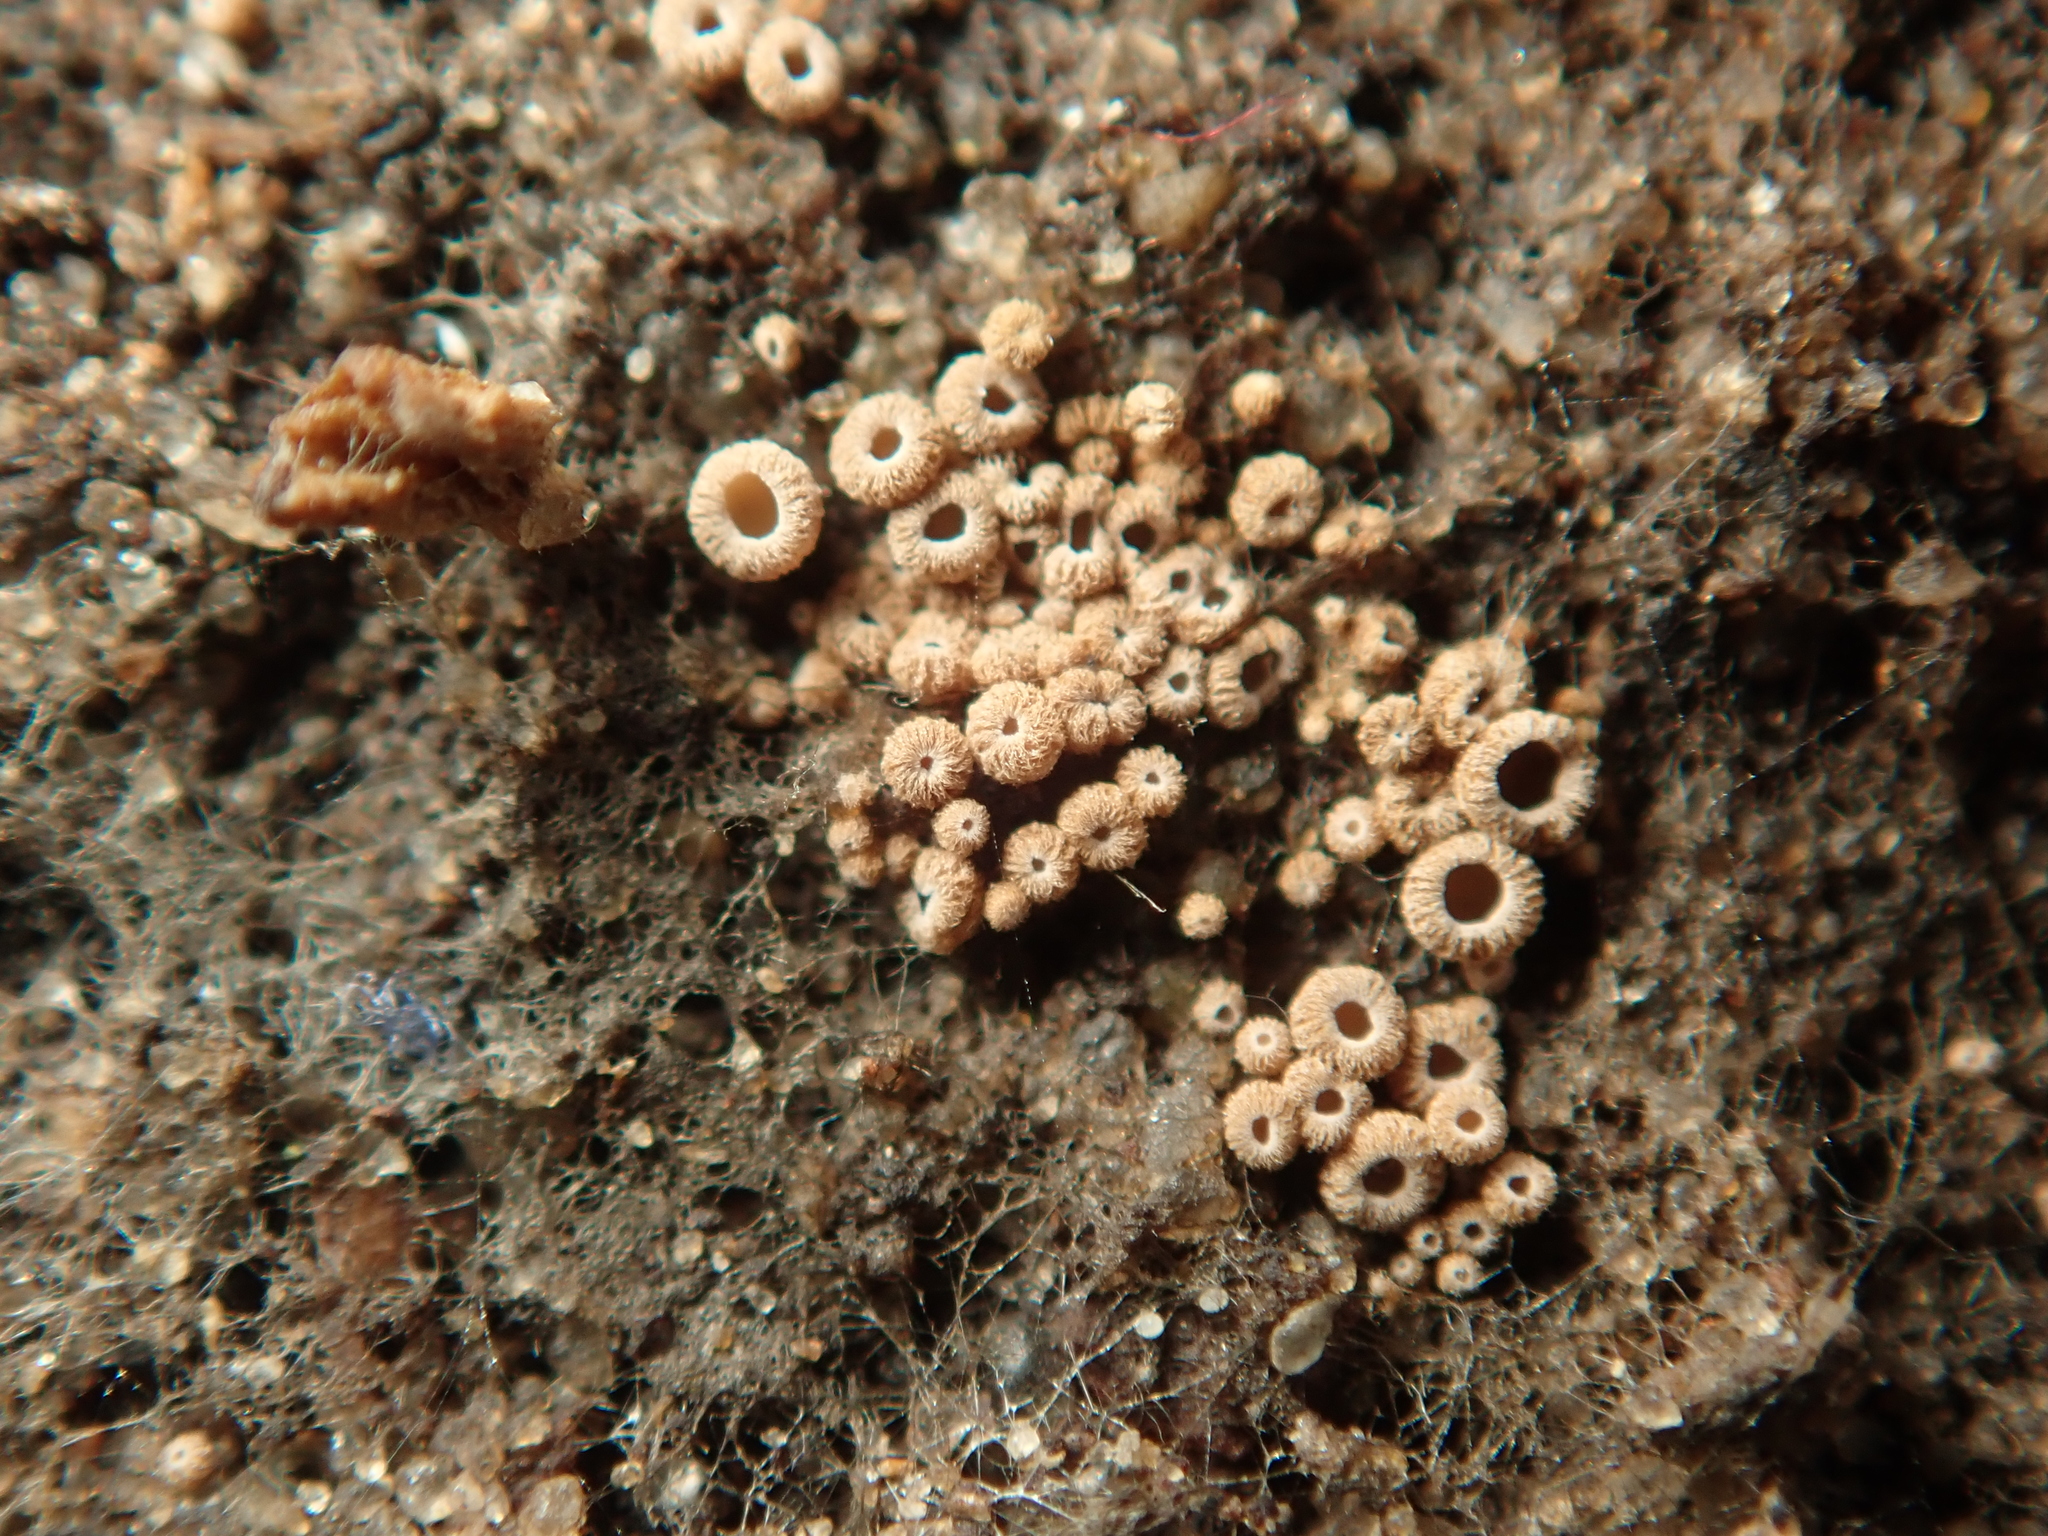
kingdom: Fungi
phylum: Basidiomycota
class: Agaricomycetes
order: Agaricales
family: Niaceae
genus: Merismodes
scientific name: Merismodes anomala
